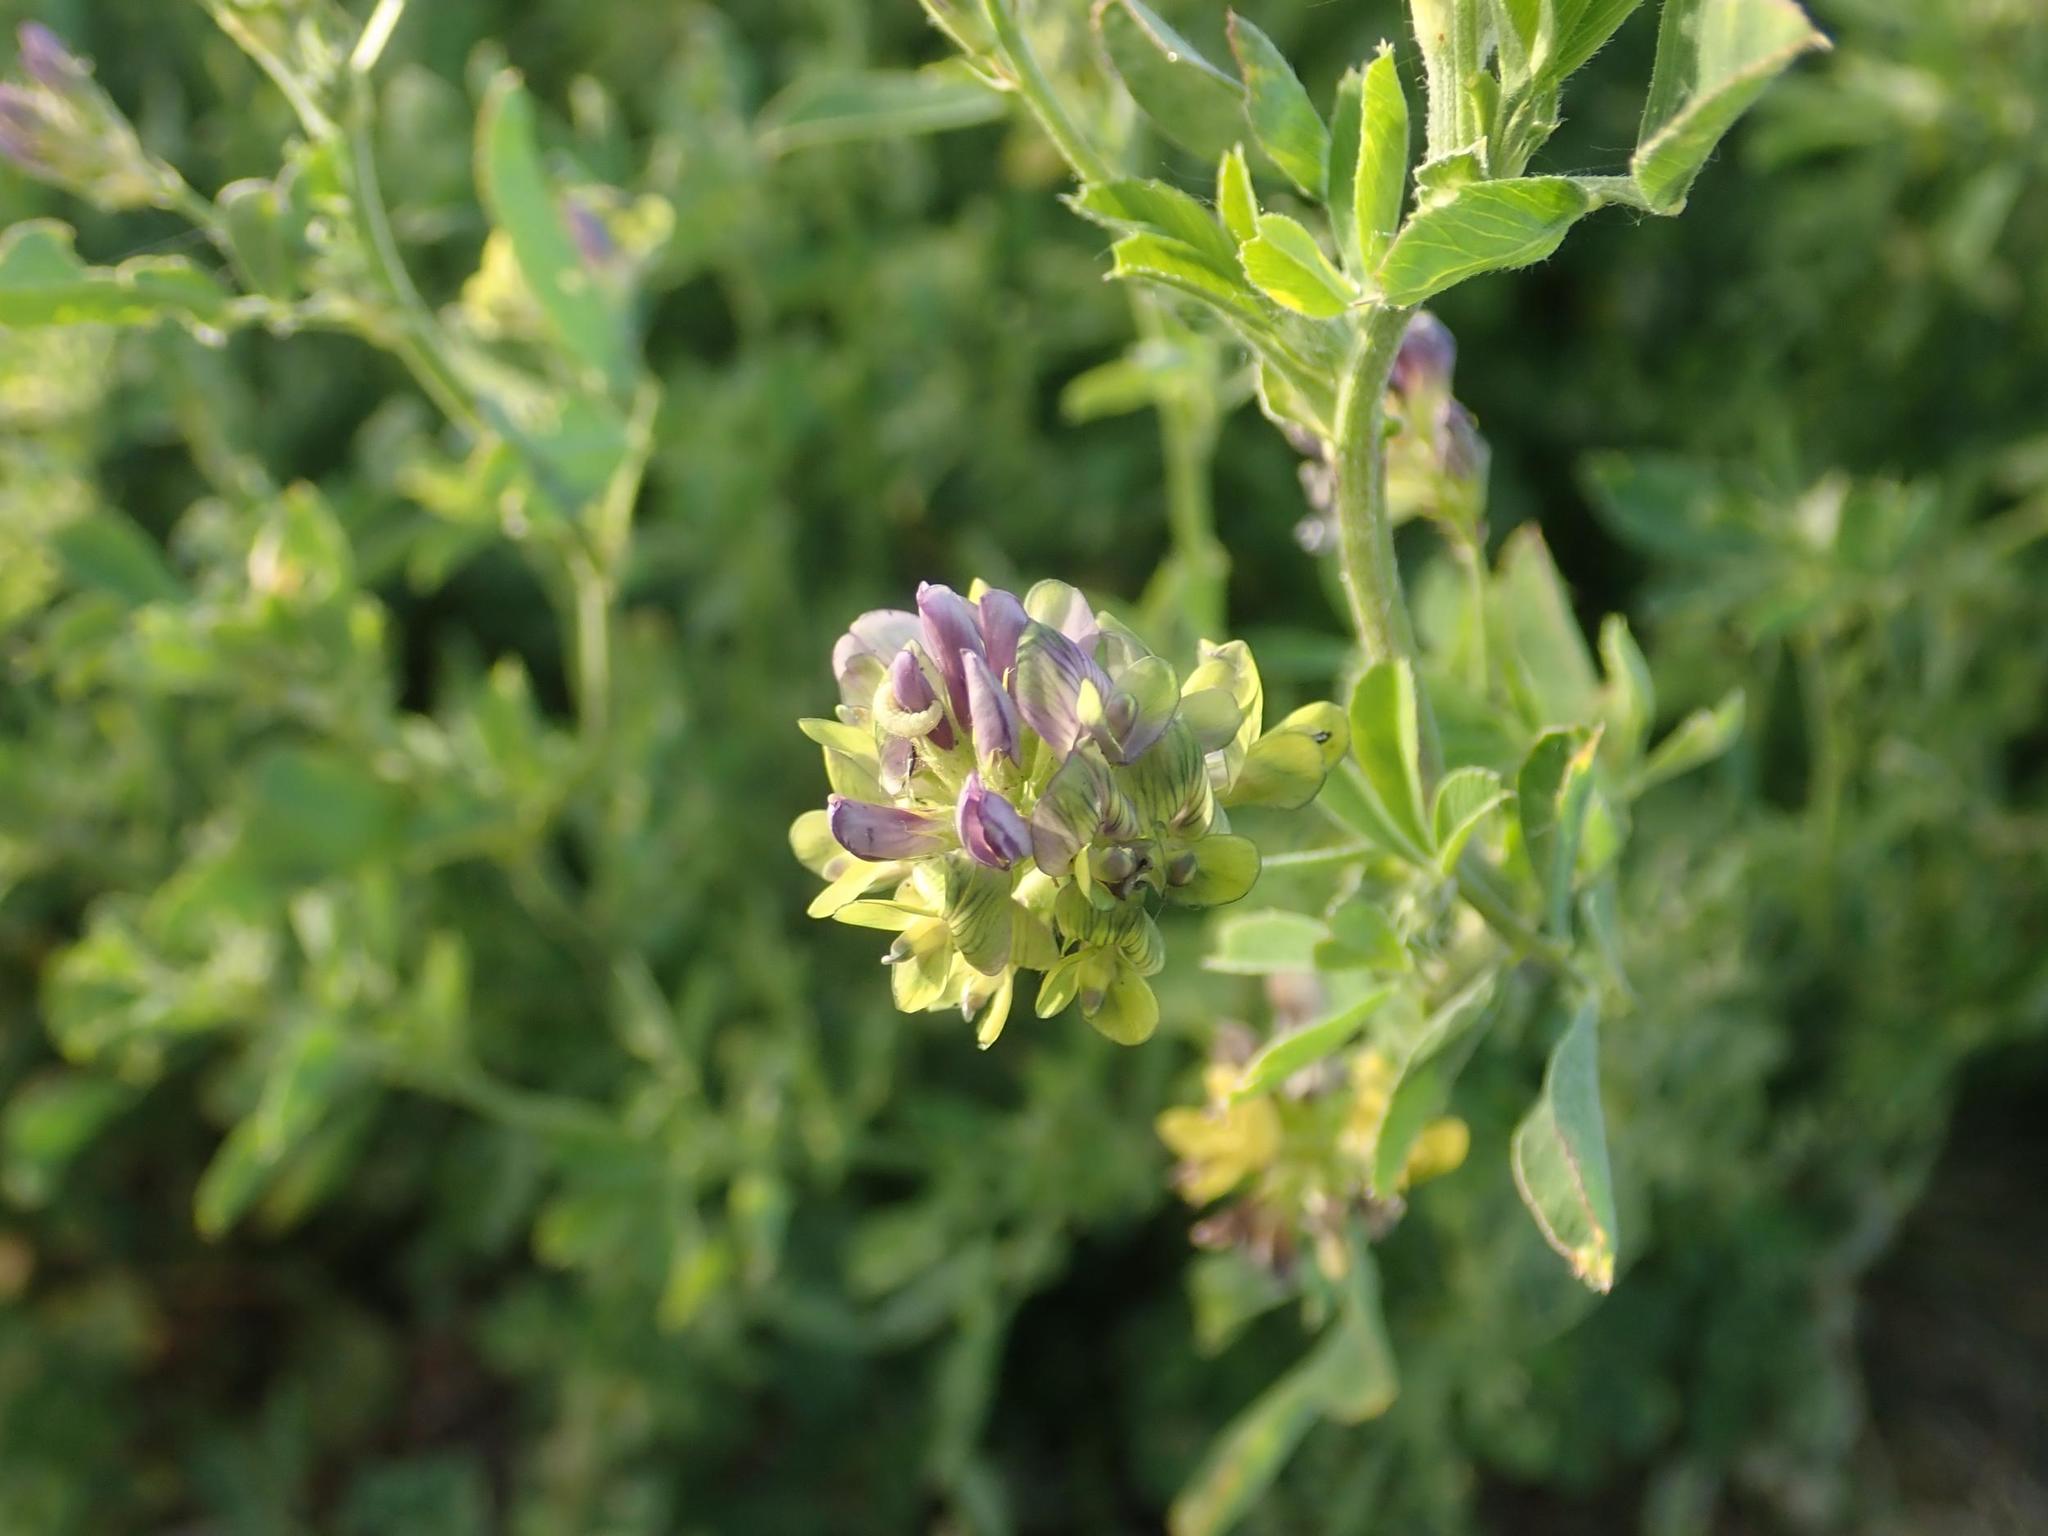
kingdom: Plantae
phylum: Tracheophyta
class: Magnoliopsida
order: Fabales
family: Fabaceae
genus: Medicago
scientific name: Medicago varia
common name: Sand lucerne
